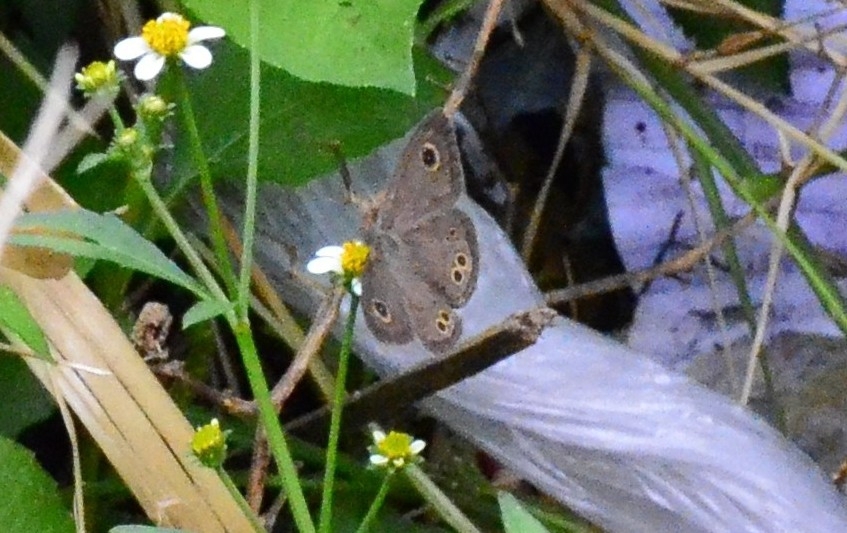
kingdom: Animalia
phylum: Arthropoda
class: Insecta
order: Lepidoptera
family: Nymphalidae
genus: Ypthima
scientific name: Ypthima baldus
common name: Common five-ring
